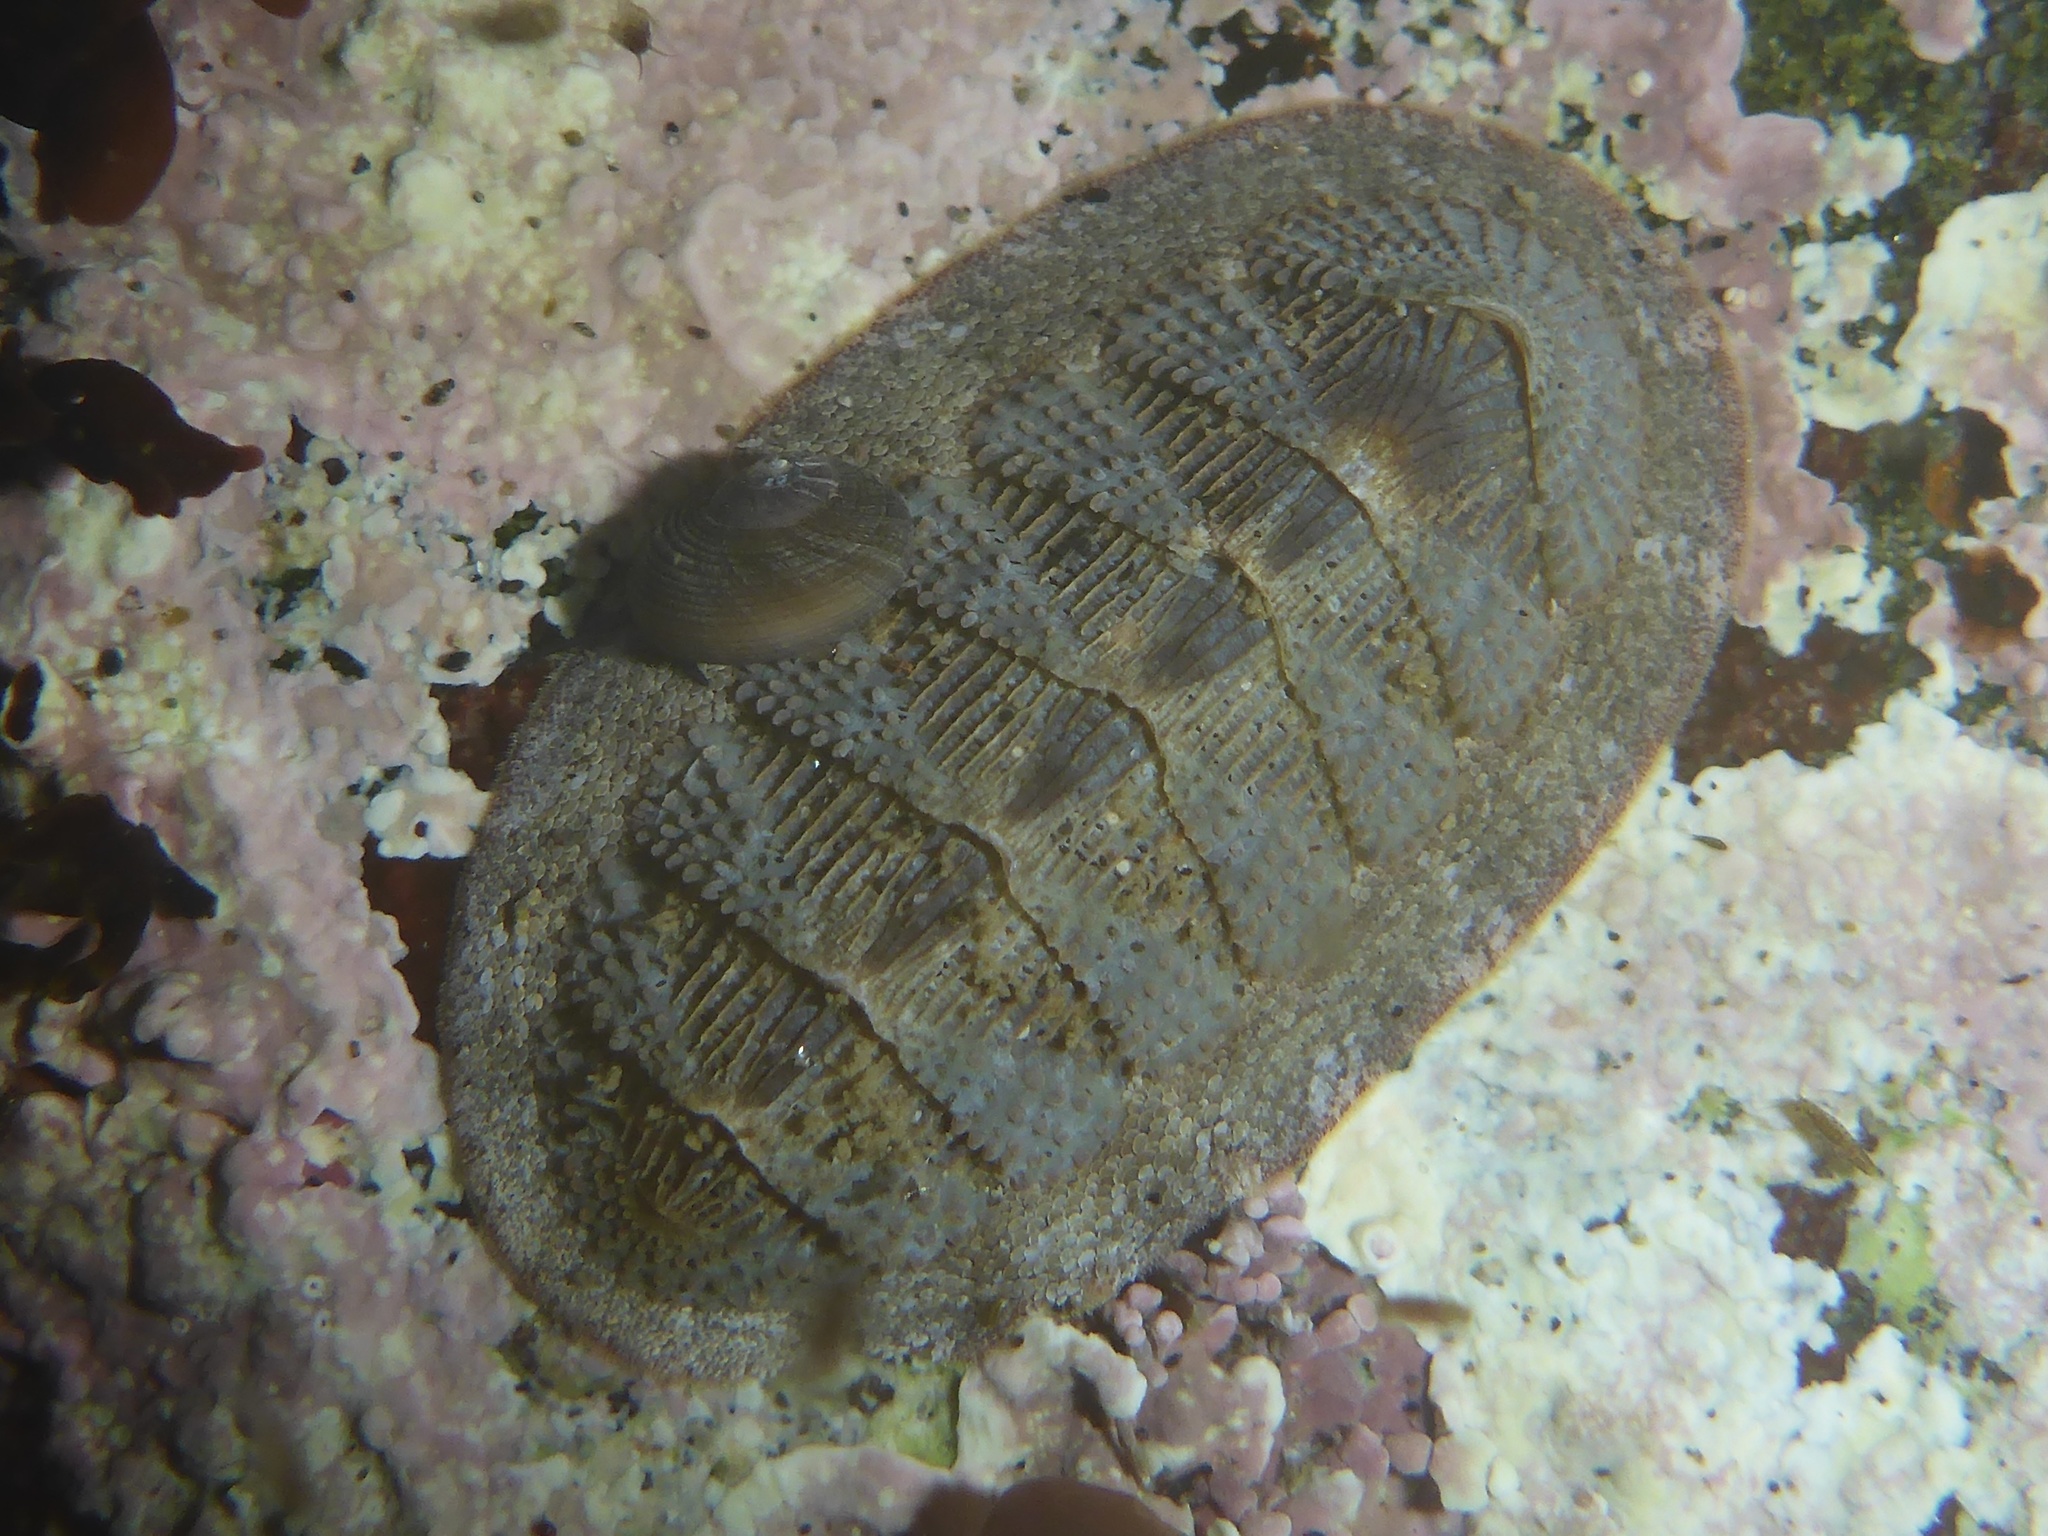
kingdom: Animalia
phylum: Mollusca
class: Polyplacophora
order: Chitonida
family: Ischnochitonidae
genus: Lepidozona
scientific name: Lepidozona cooperi
